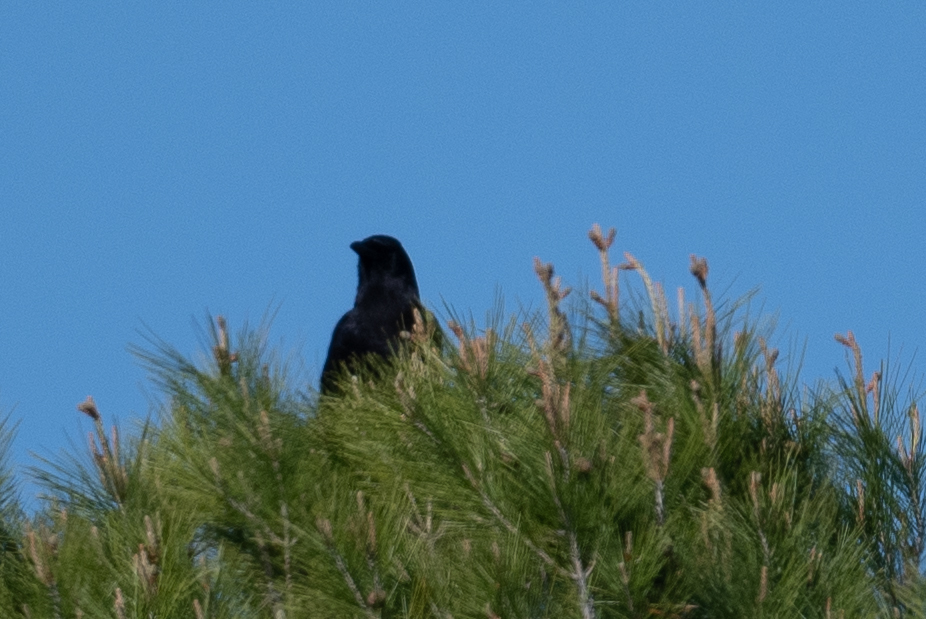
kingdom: Animalia
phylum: Chordata
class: Aves
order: Passeriformes
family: Corvidae
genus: Corvus
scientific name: Corvus brachyrhynchos
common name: American crow
